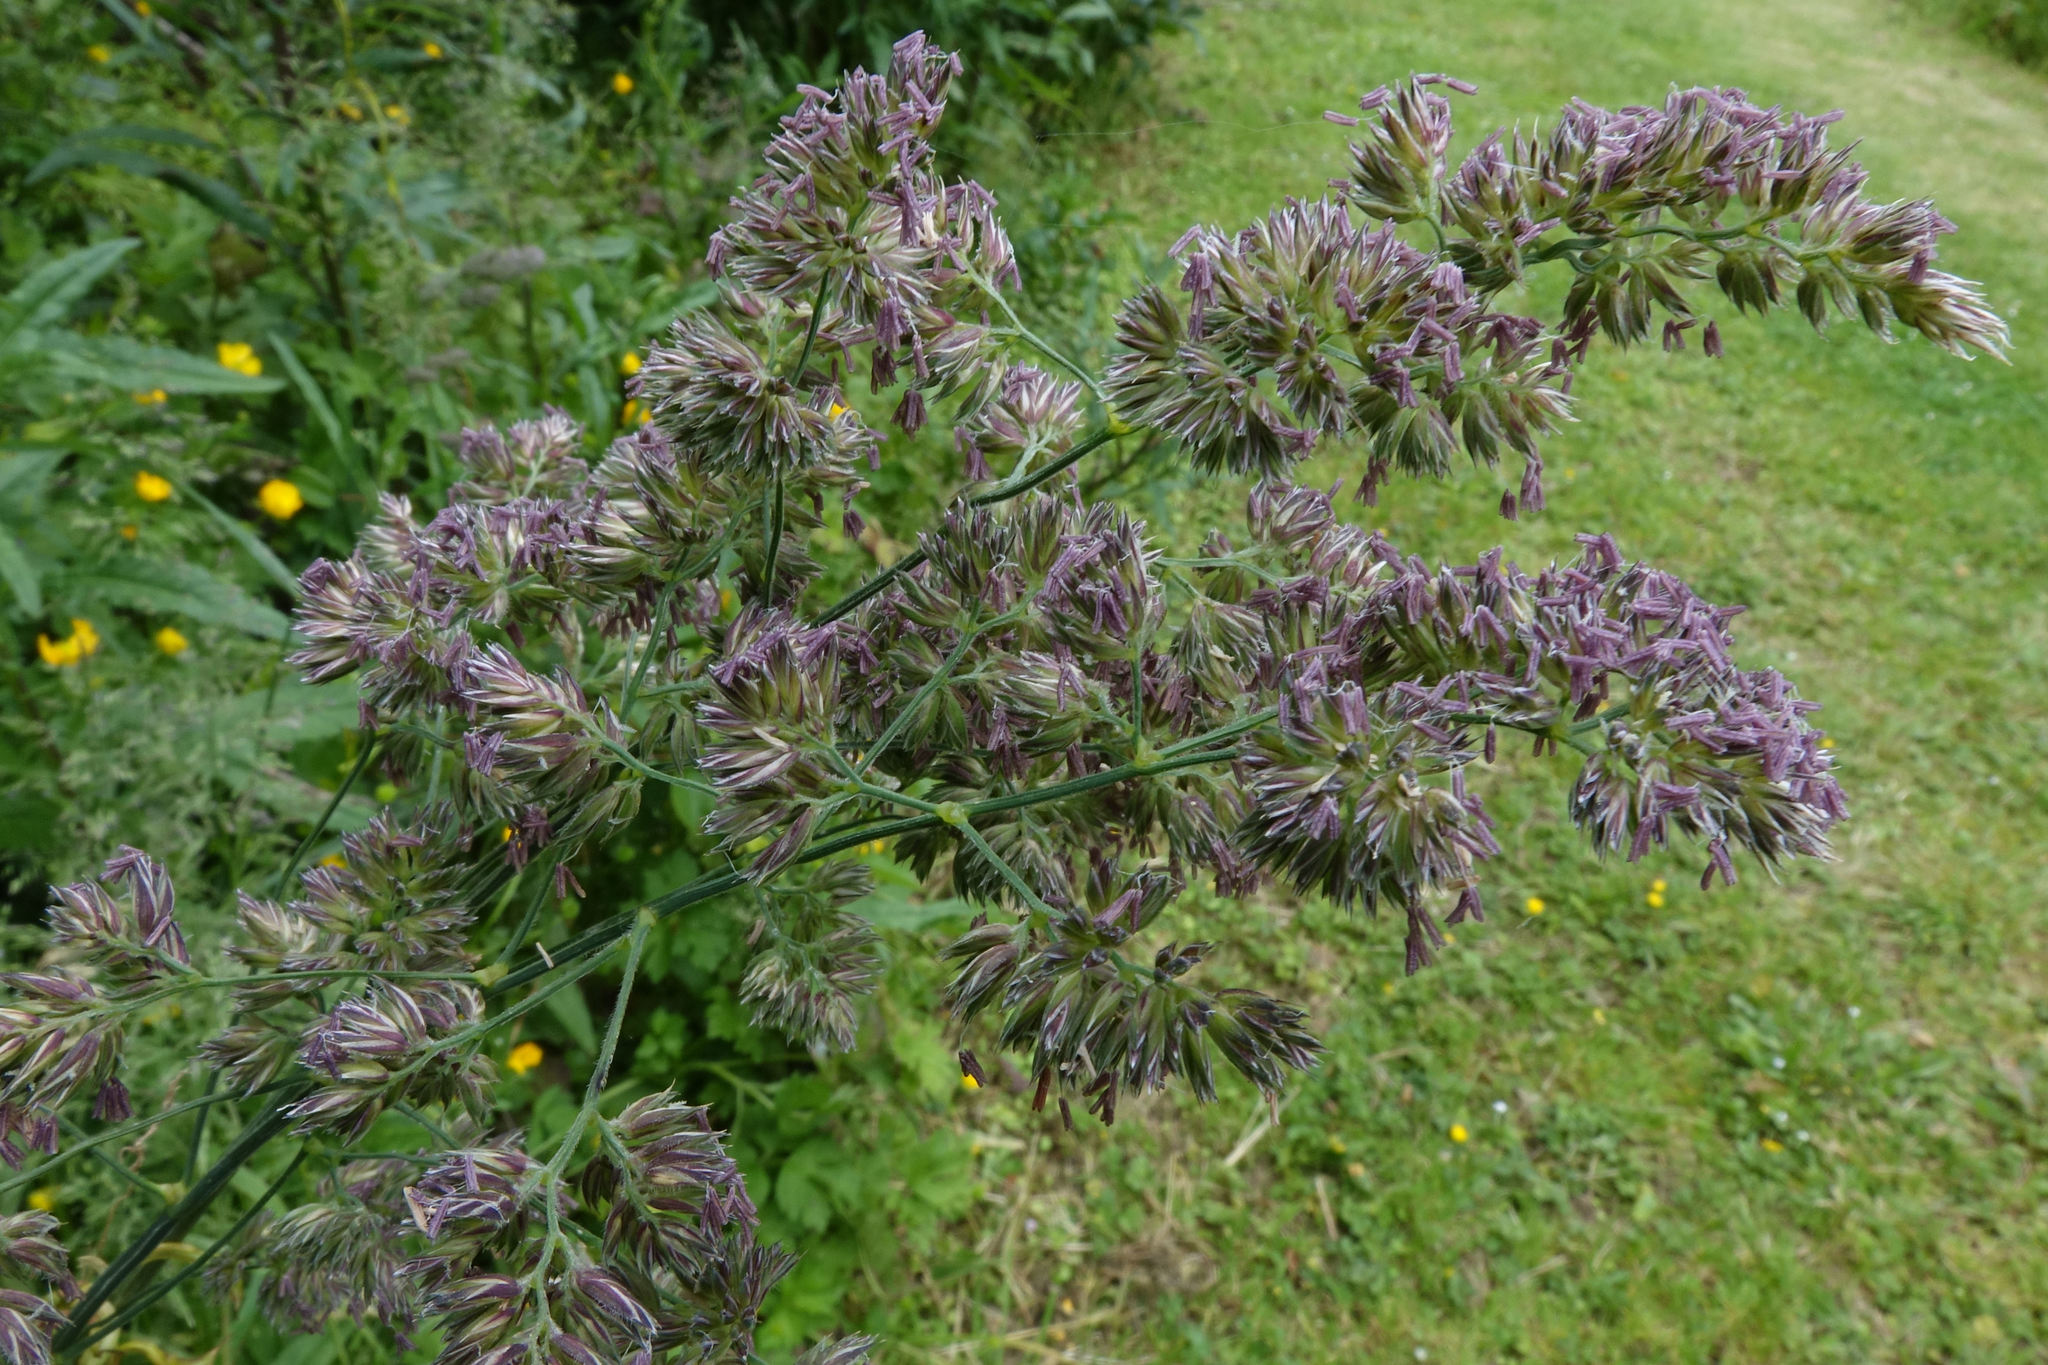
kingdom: Plantae
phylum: Tracheophyta
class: Liliopsida
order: Poales
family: Poaceae
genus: Dactylis
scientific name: Dactylis glomerata
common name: Orchardgrass
